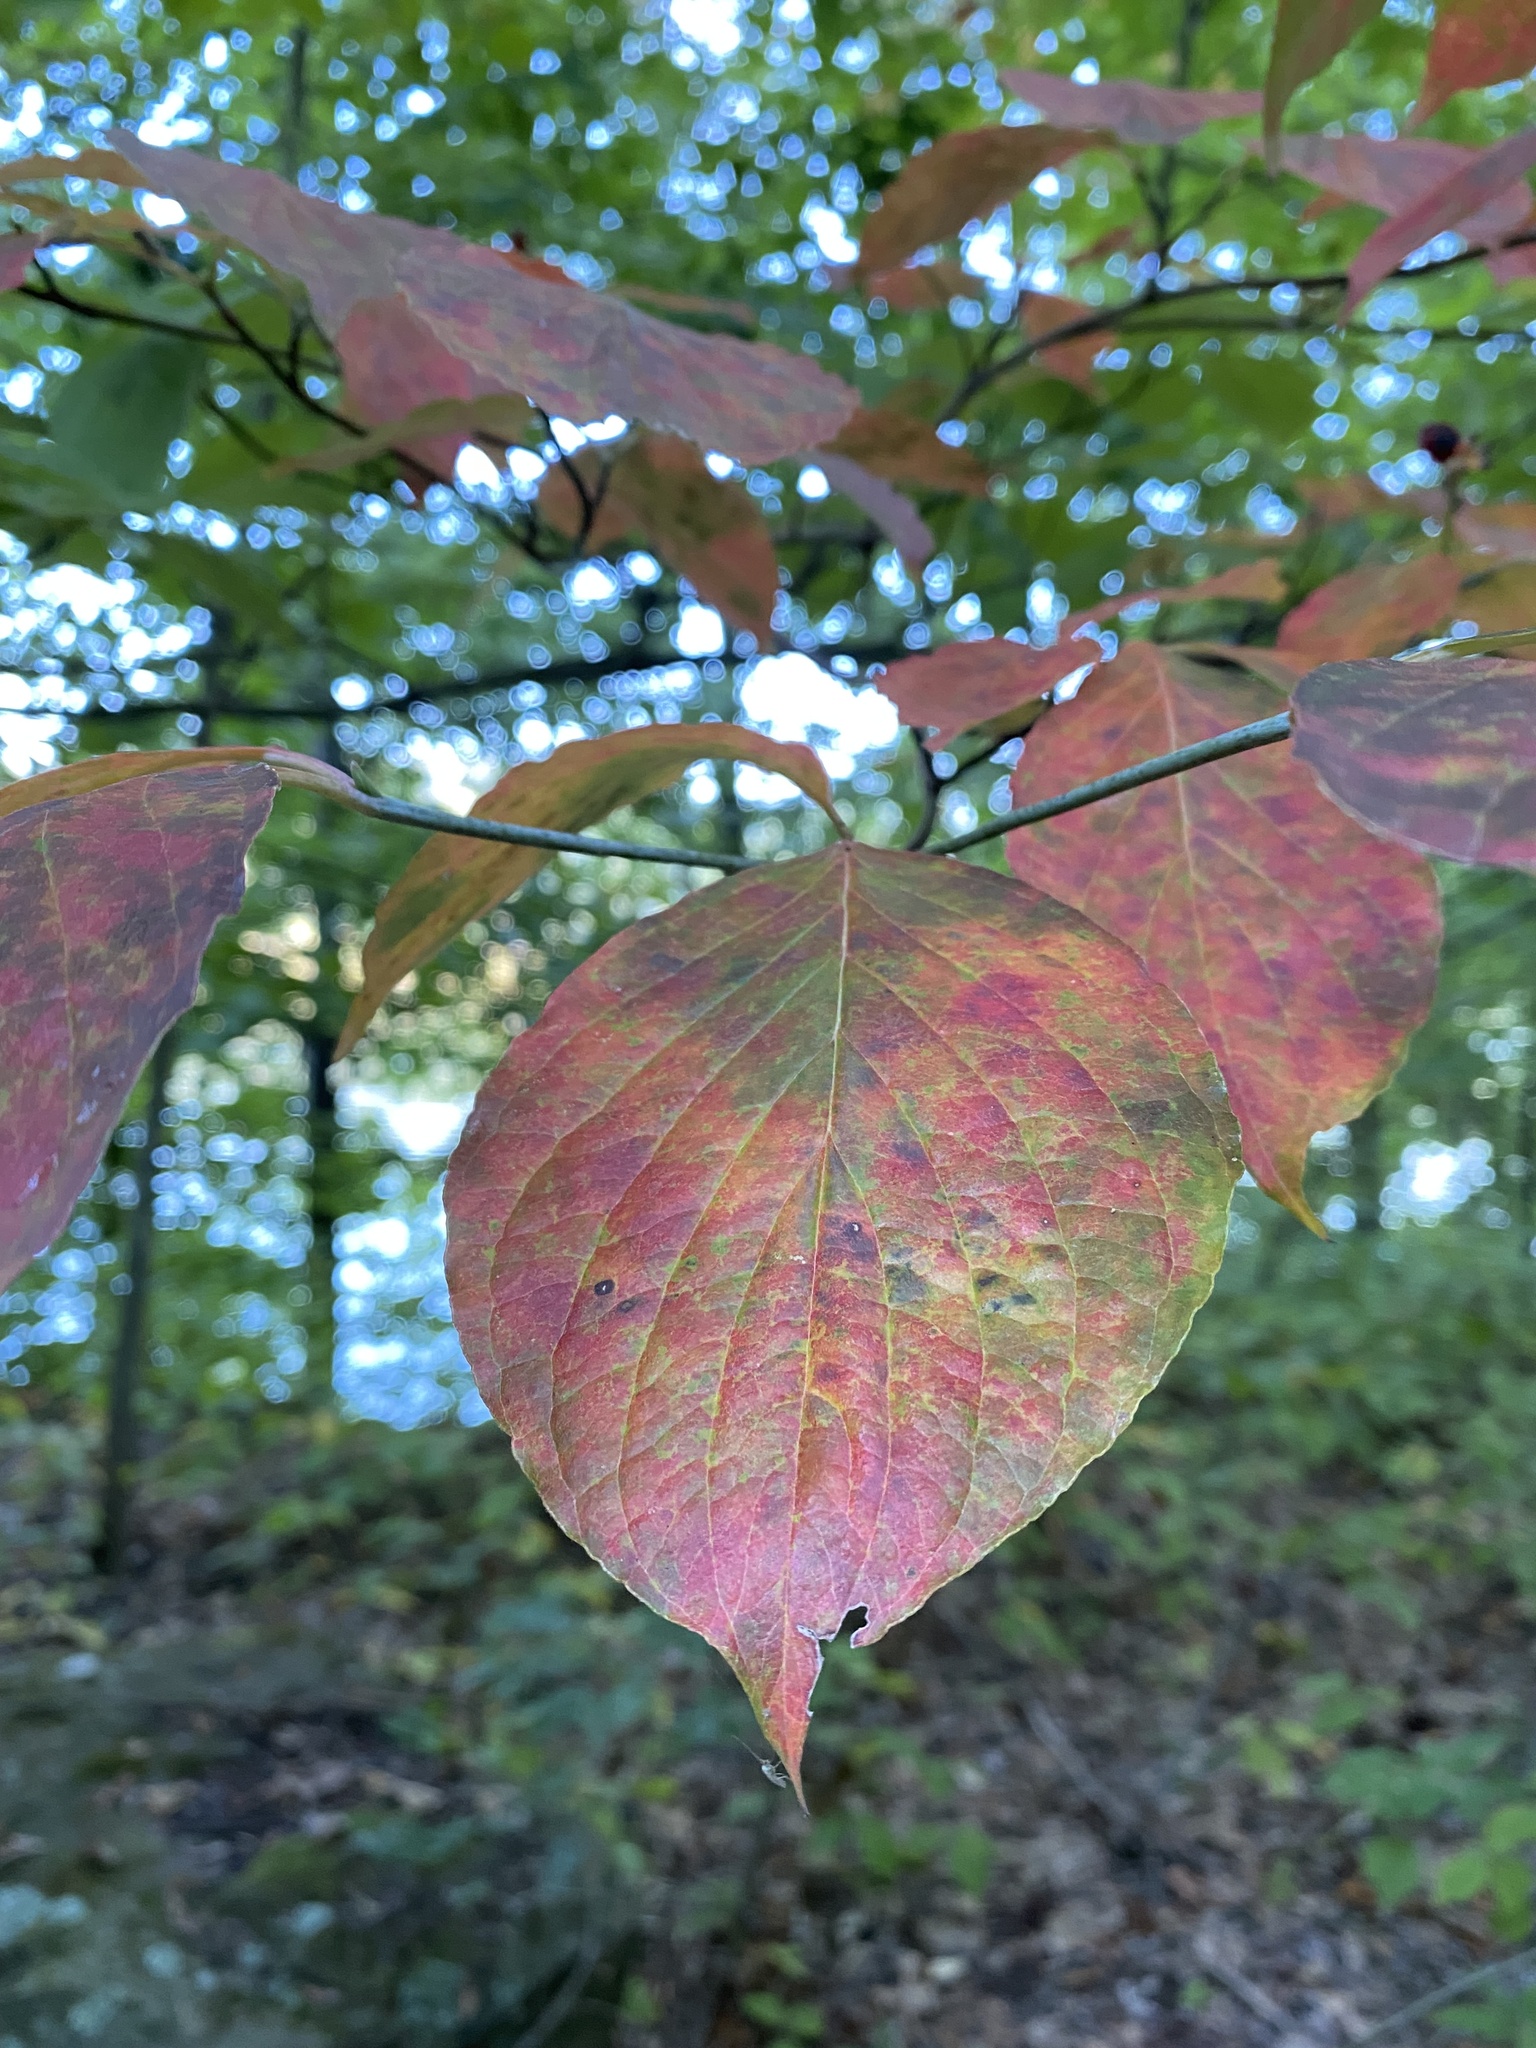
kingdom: Plantae
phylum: Tracheophyta
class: Magnoliopsida
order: Cornales
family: Cornaceae
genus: Cornus
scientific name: Cornus florida
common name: Flowering dogwood
